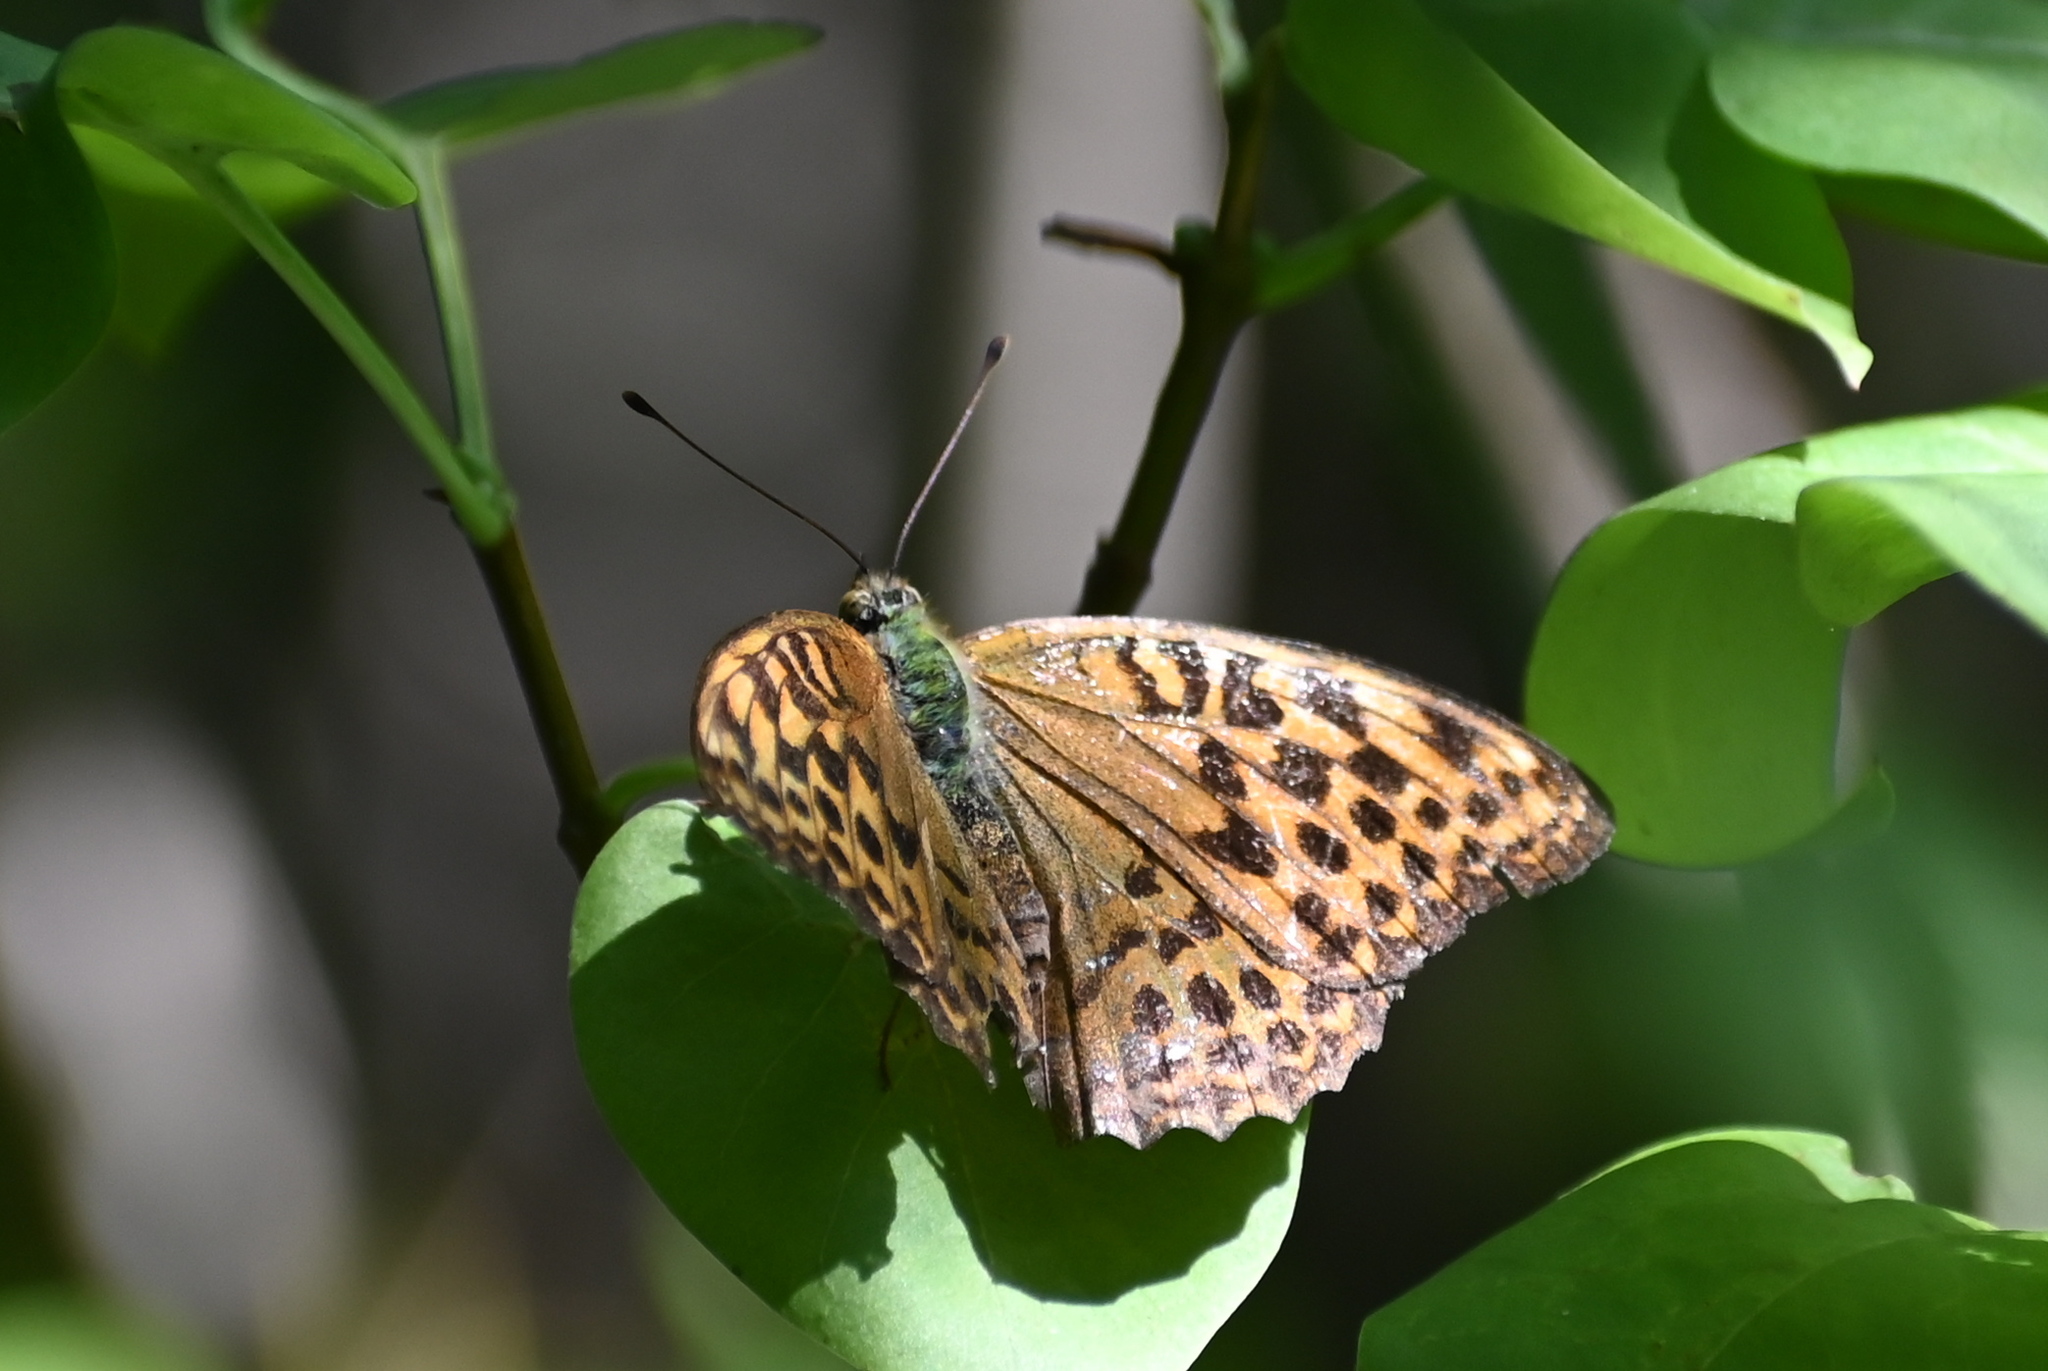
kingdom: Animalia
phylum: Arthropoda
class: Insecta
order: Lepidoptera
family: Nymphalidae
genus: Argynnis
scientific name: Argynnis paphia
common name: Silver-washed fritillary
